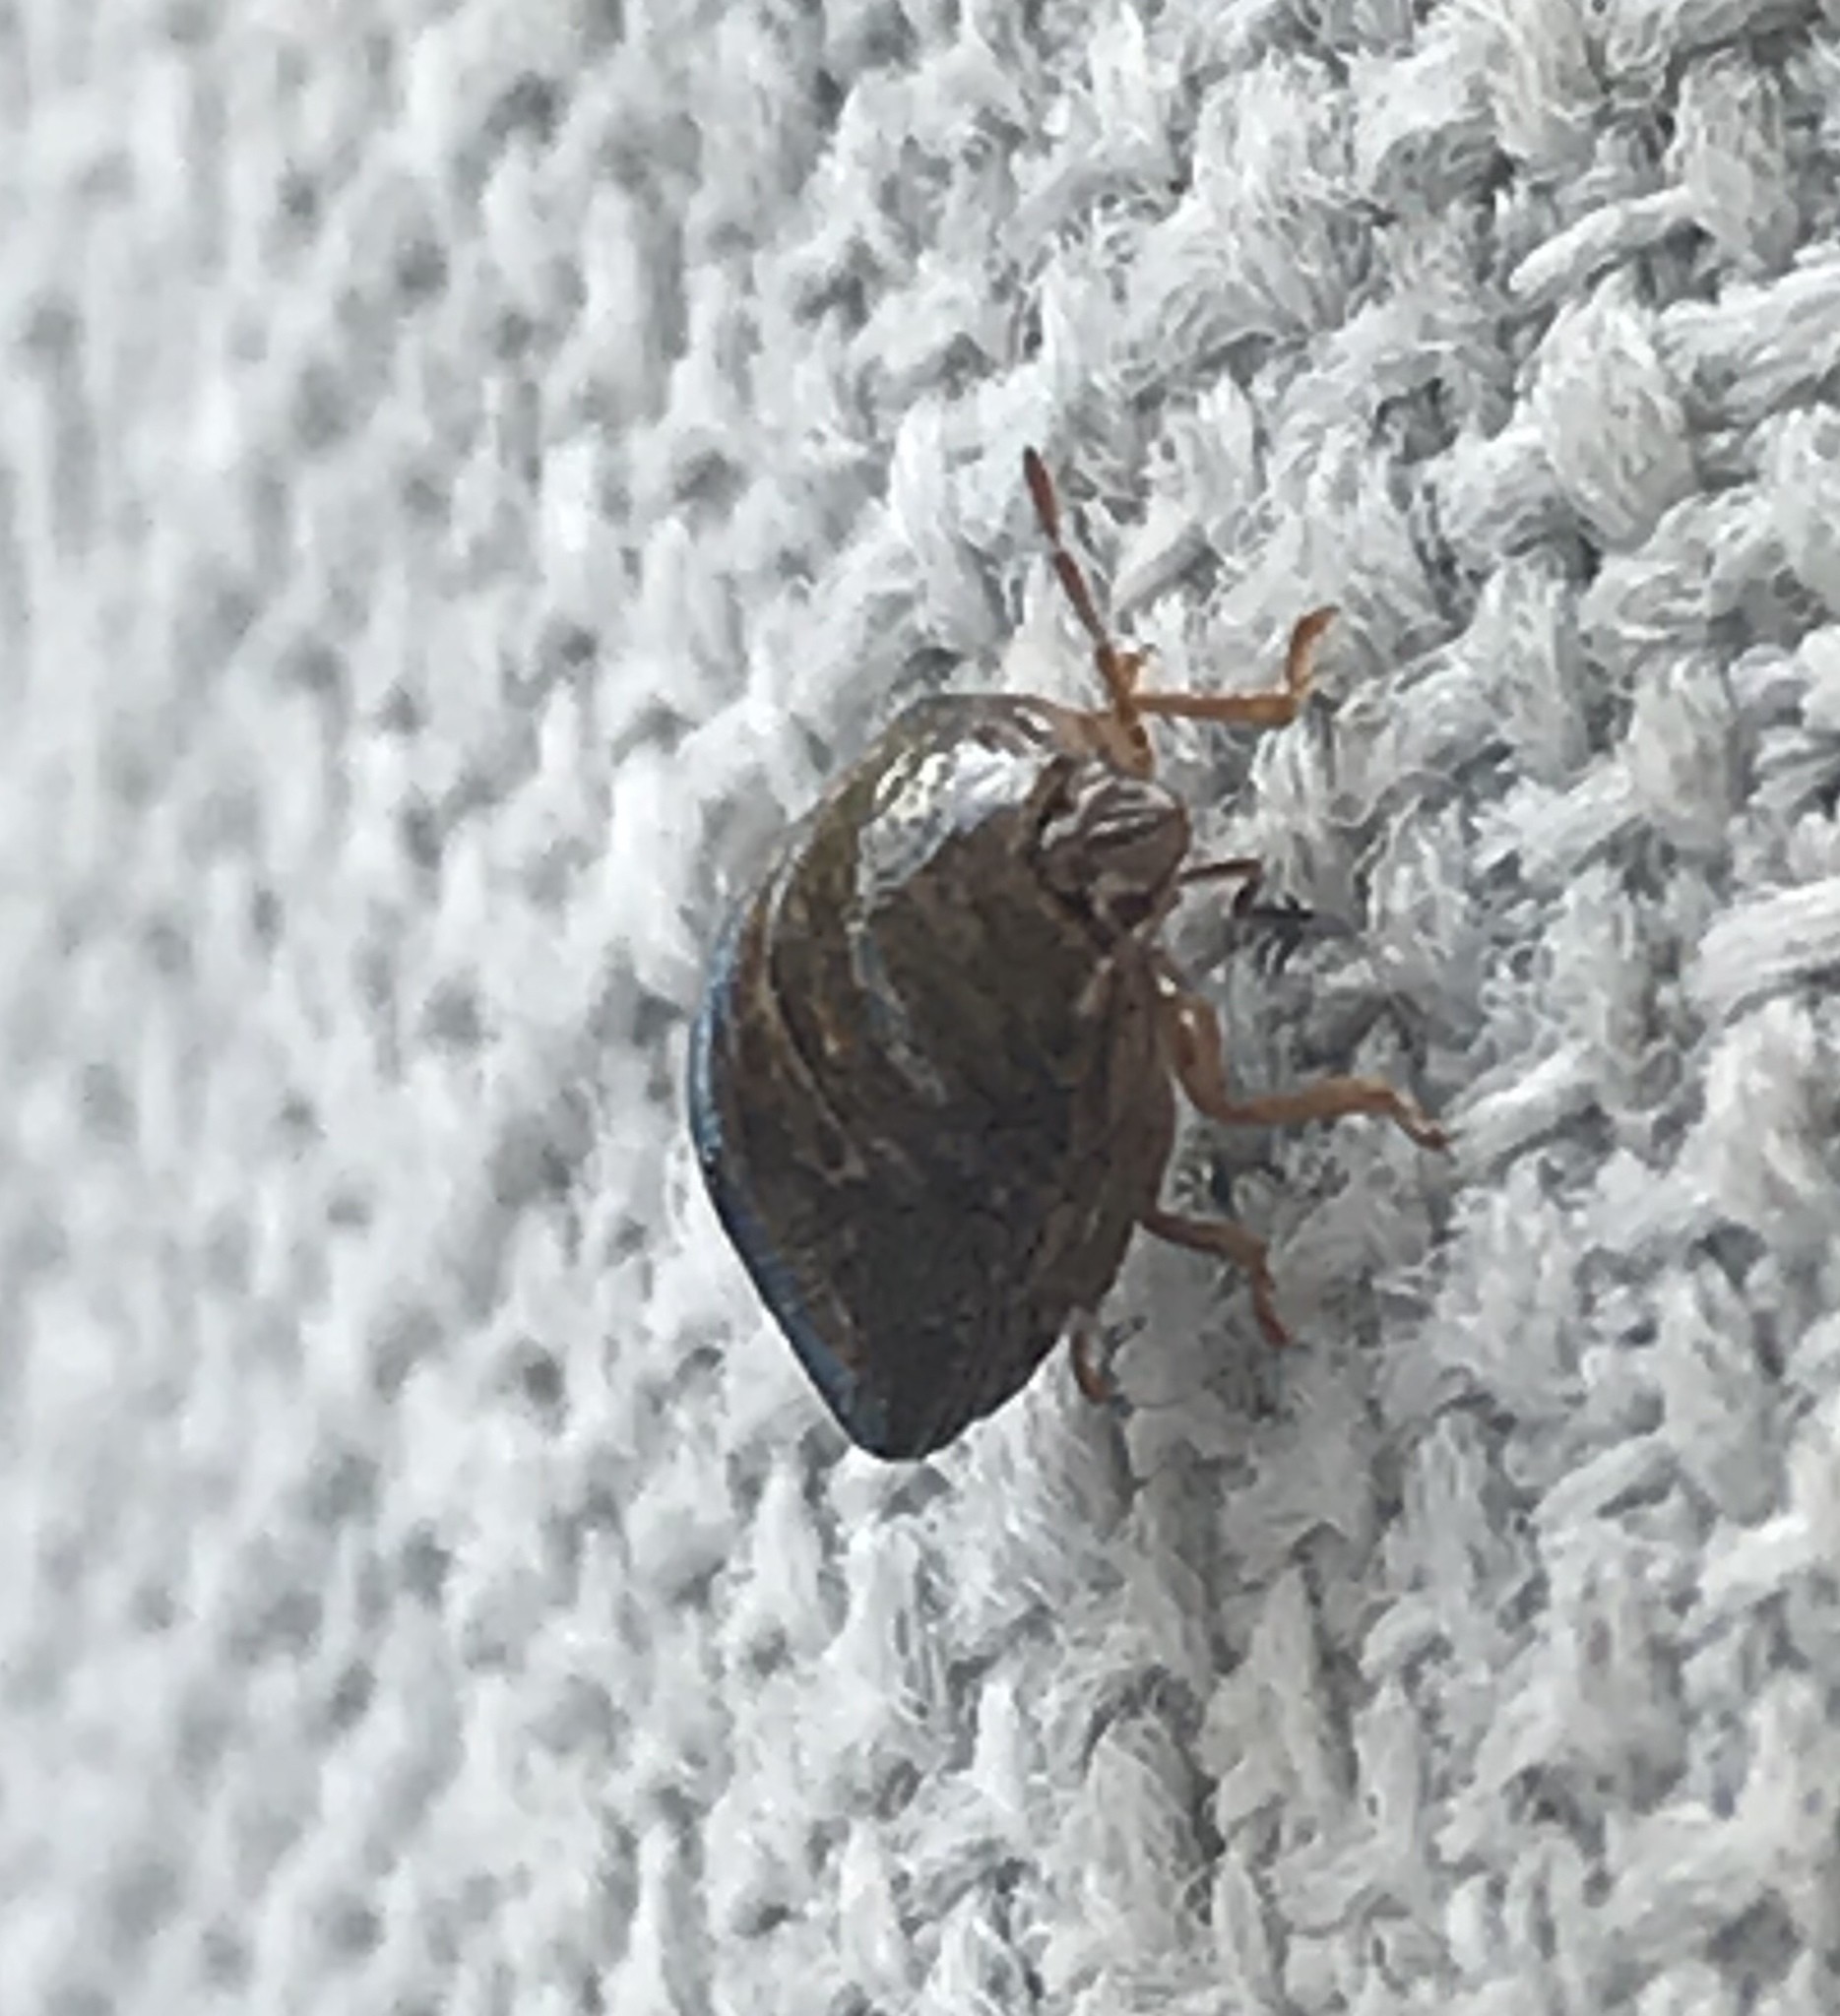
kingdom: Animalia
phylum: Arthropoda
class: Insecta
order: Hemiptera
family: Plataspidae
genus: Megacopta
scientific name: Megacopta cribraria
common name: Bean plataspid
